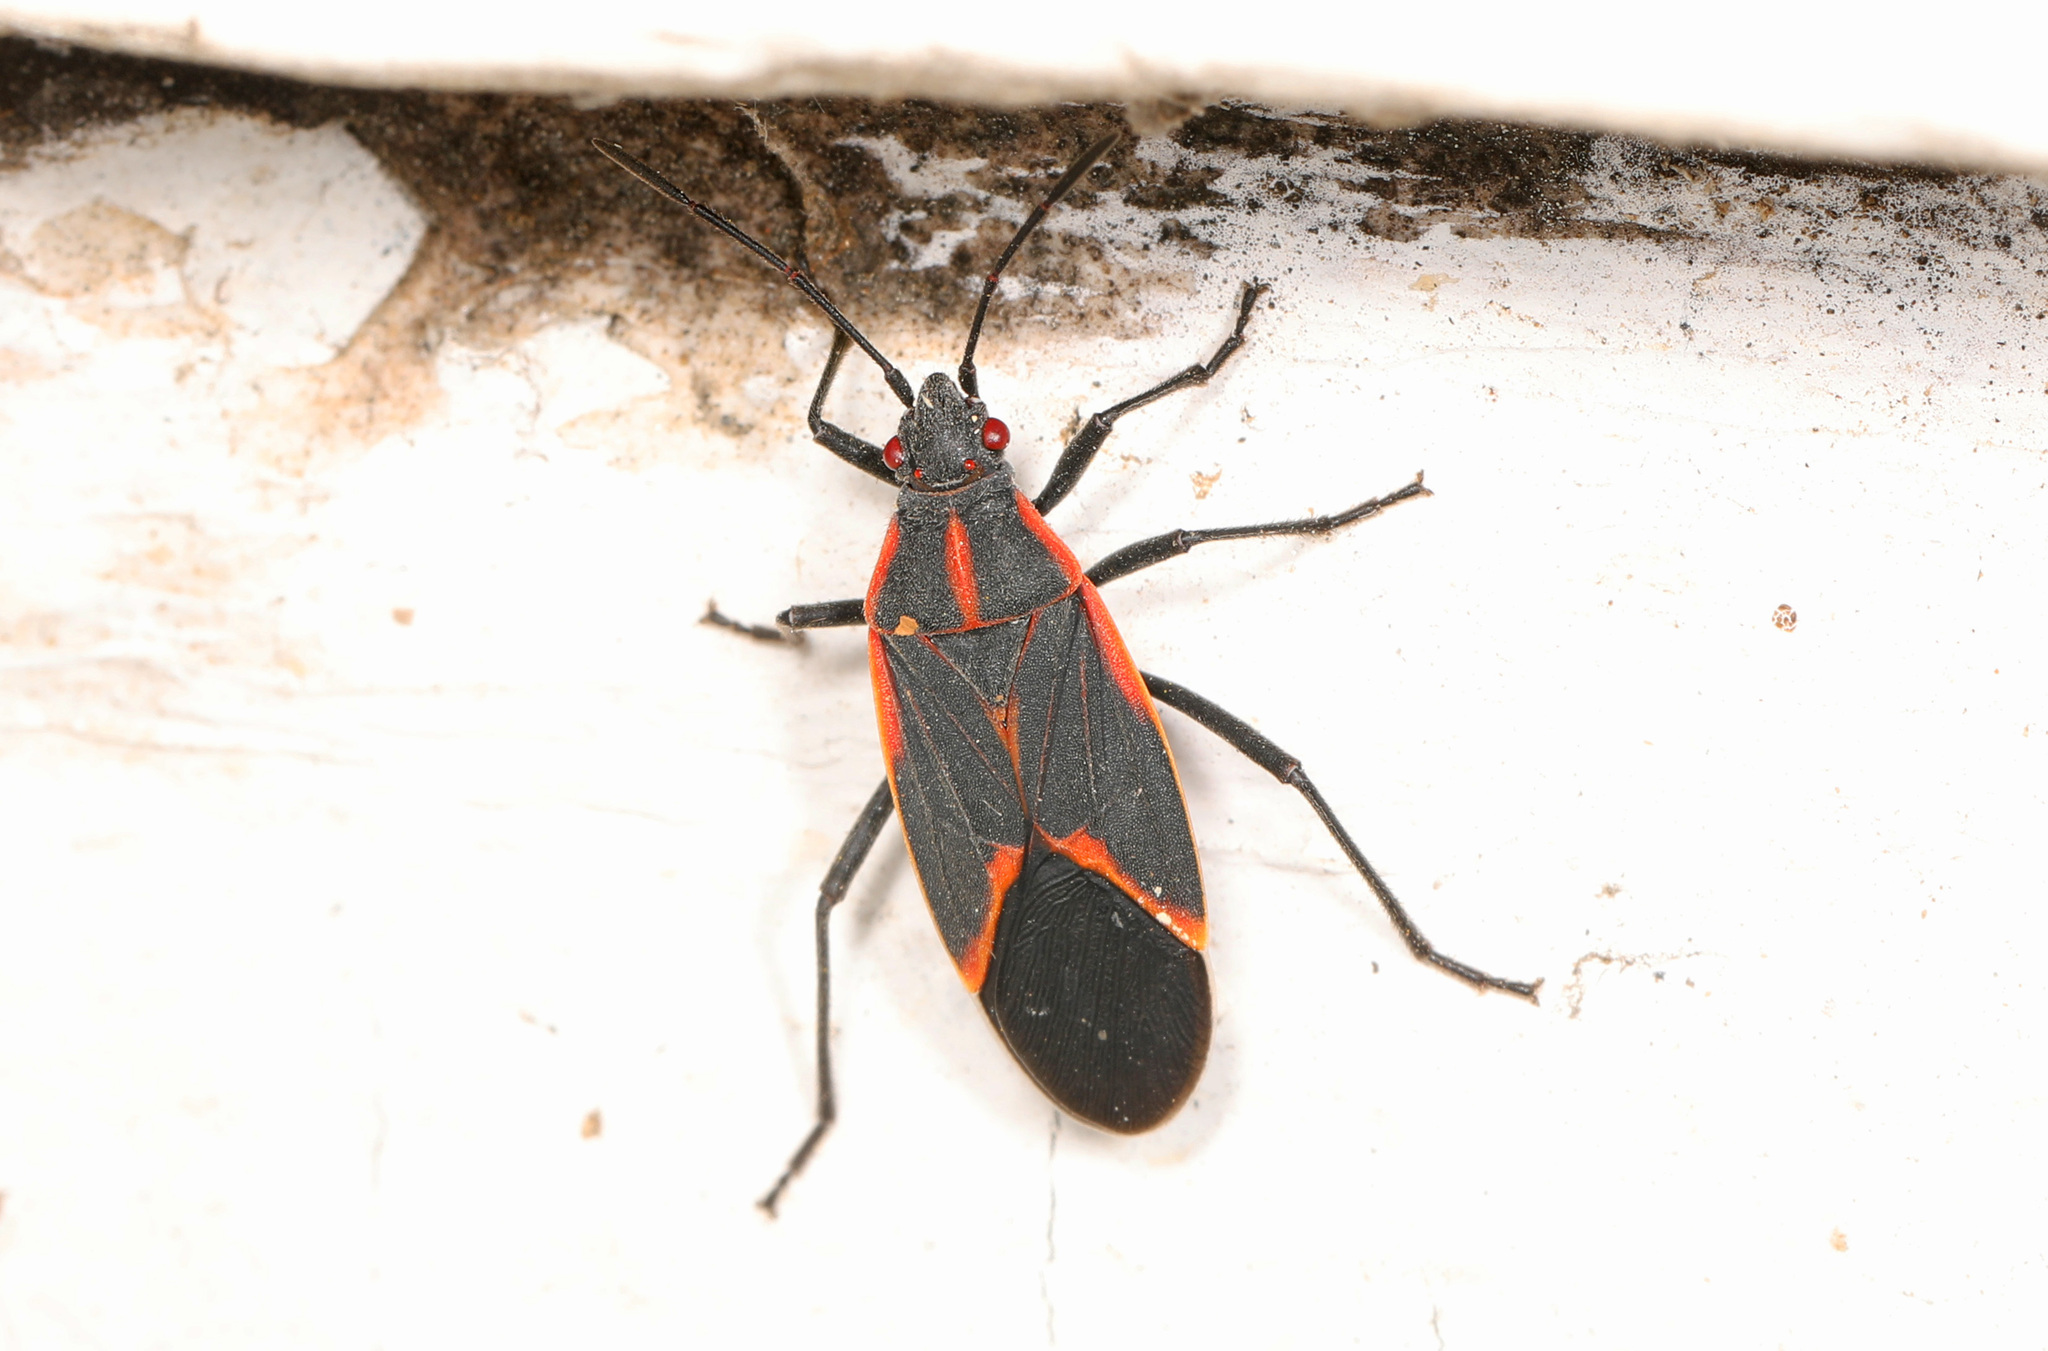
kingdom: Animalia
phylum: Arthropoda
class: Insecta
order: Hemiptera
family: Rhopalidae
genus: Boisea
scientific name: Boisea trivittata
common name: Boxelder bug
